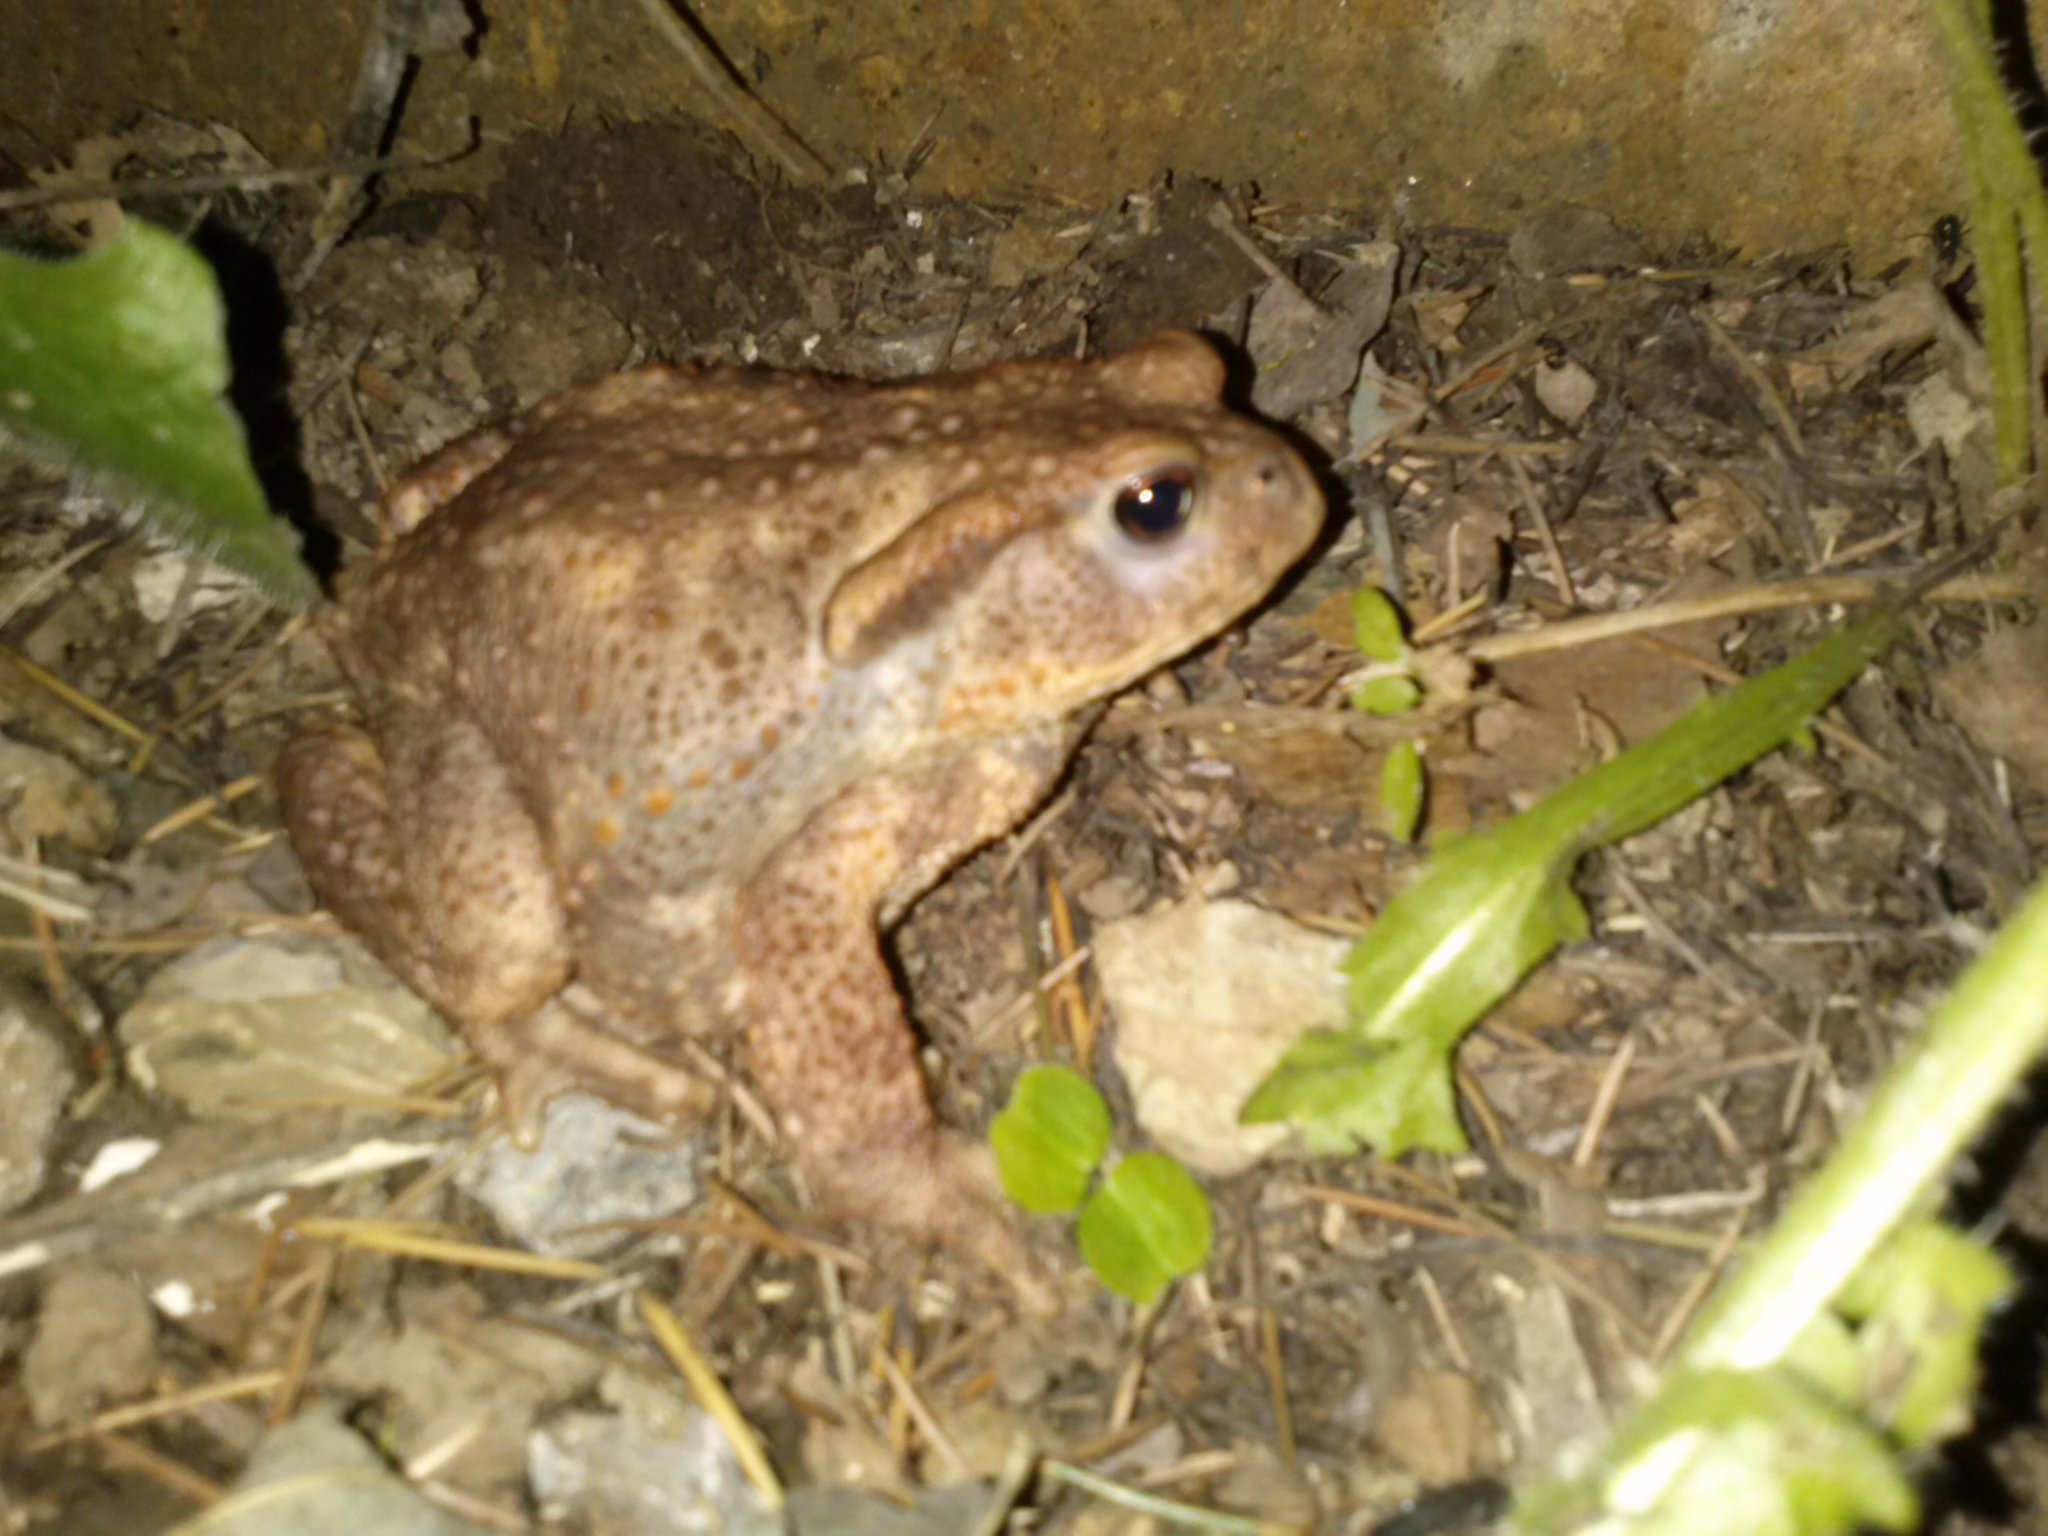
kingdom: Animalia
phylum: Chordata
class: Amphibia
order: Anura
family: Bufonidae
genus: Bufo
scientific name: Bufo bufo
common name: Common toad
